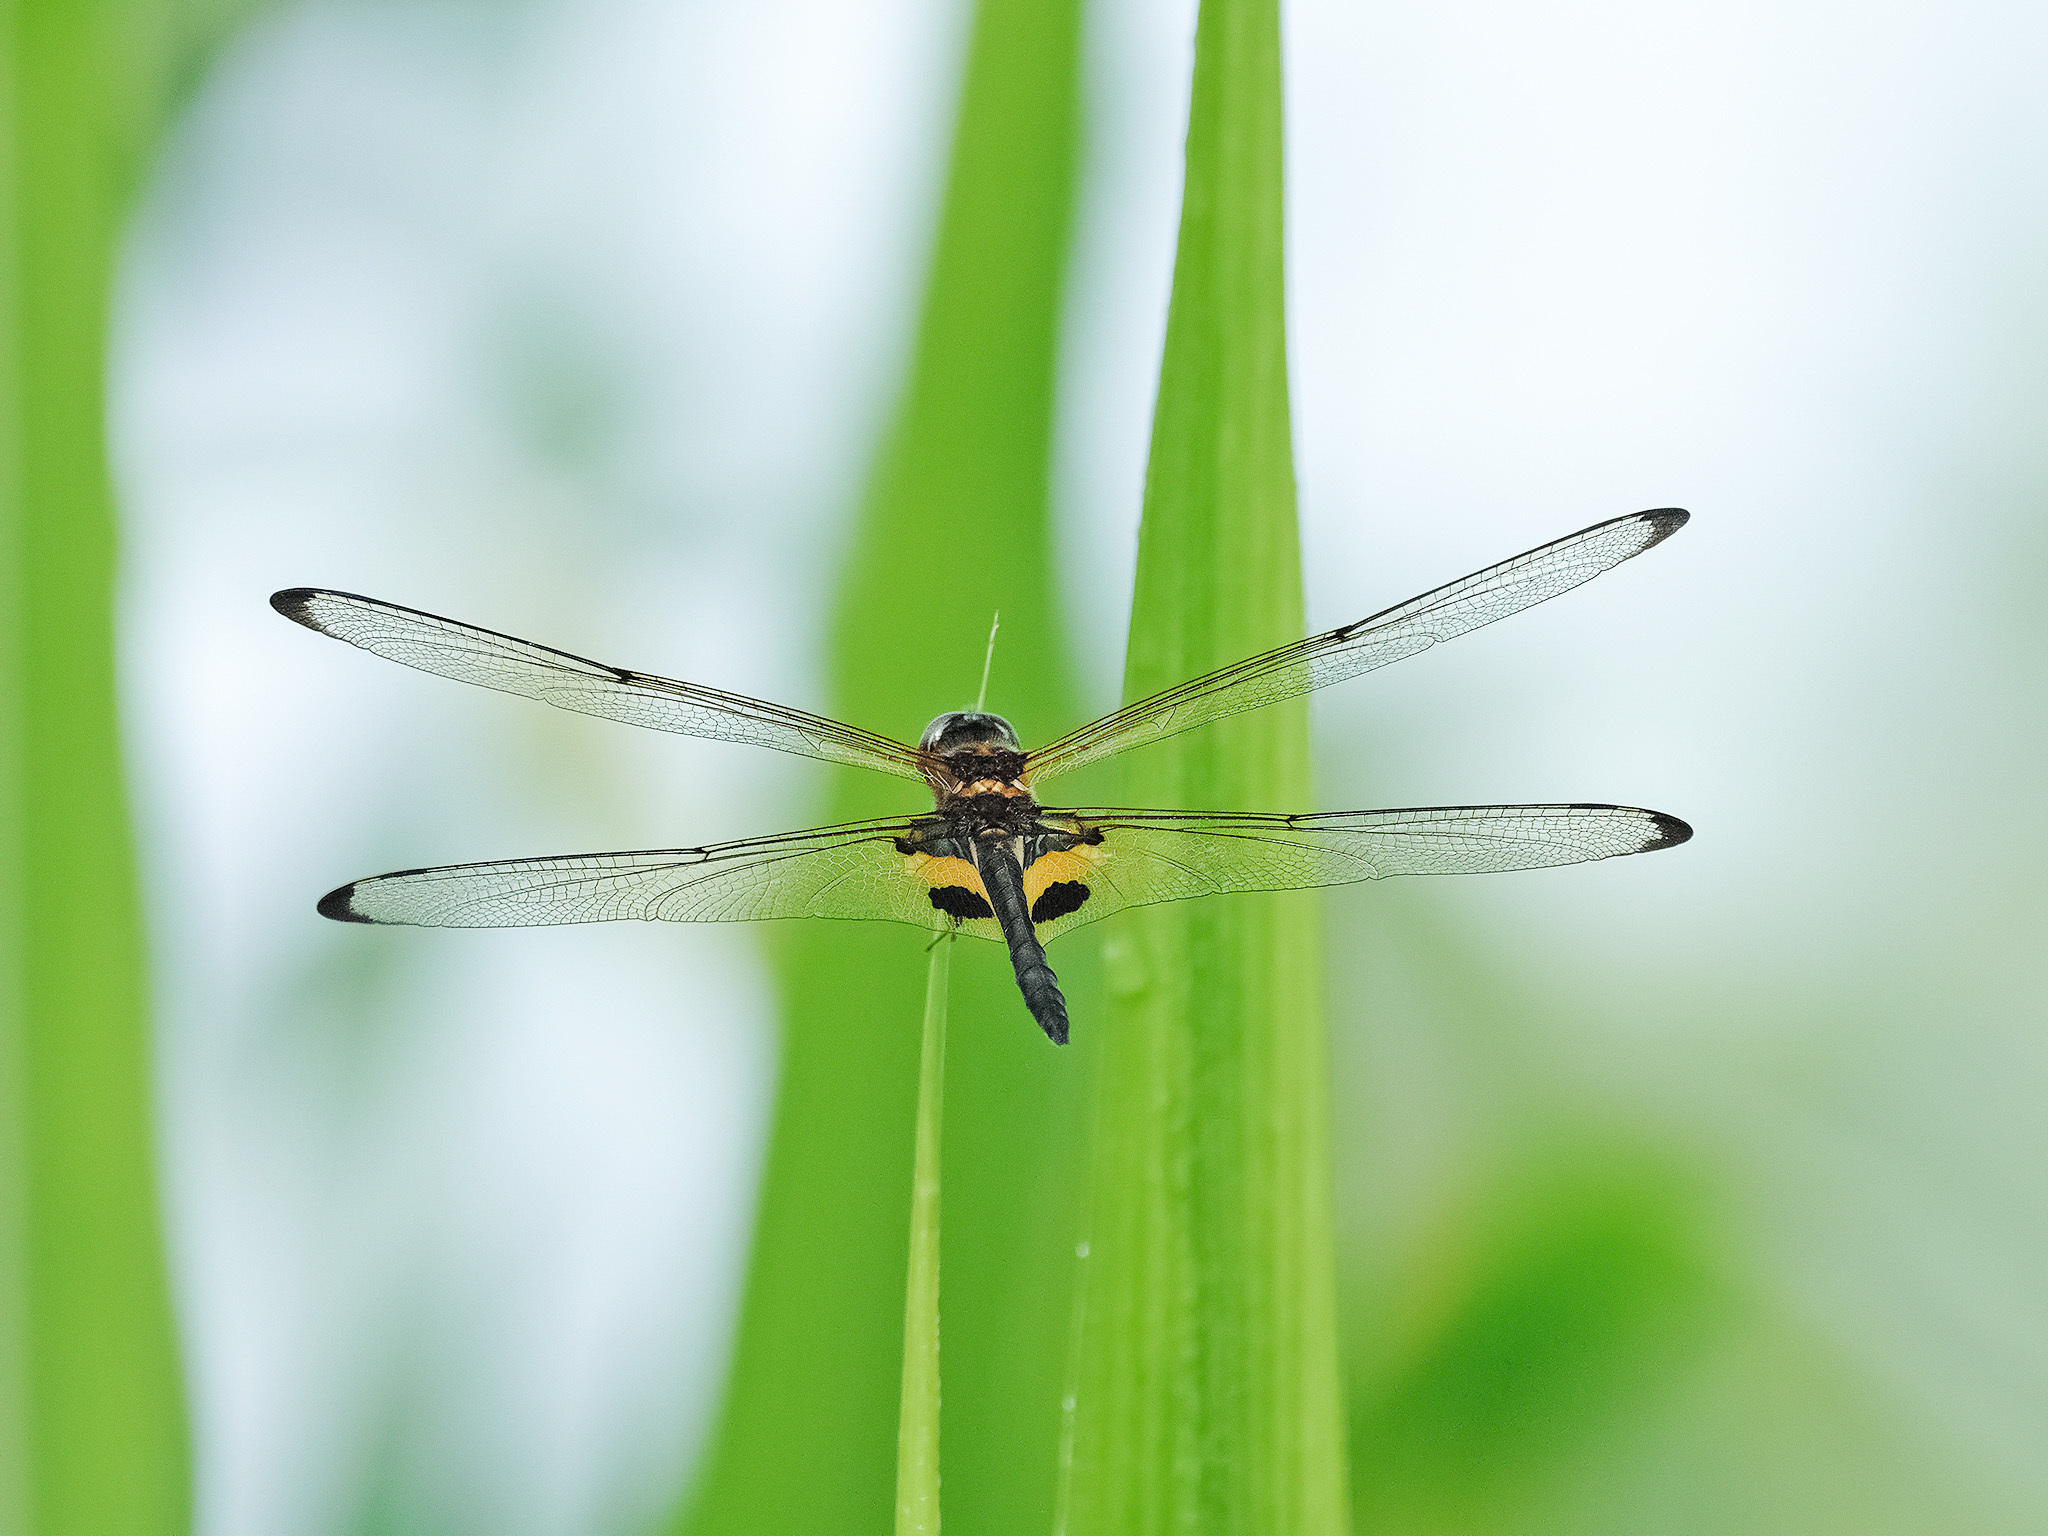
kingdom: Animalia
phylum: Arthropoda
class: Insecta
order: Odonata
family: Libellulidae
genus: Rhyothemis
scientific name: Rhyothemis phyllis
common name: Yellow-barred flutterer
